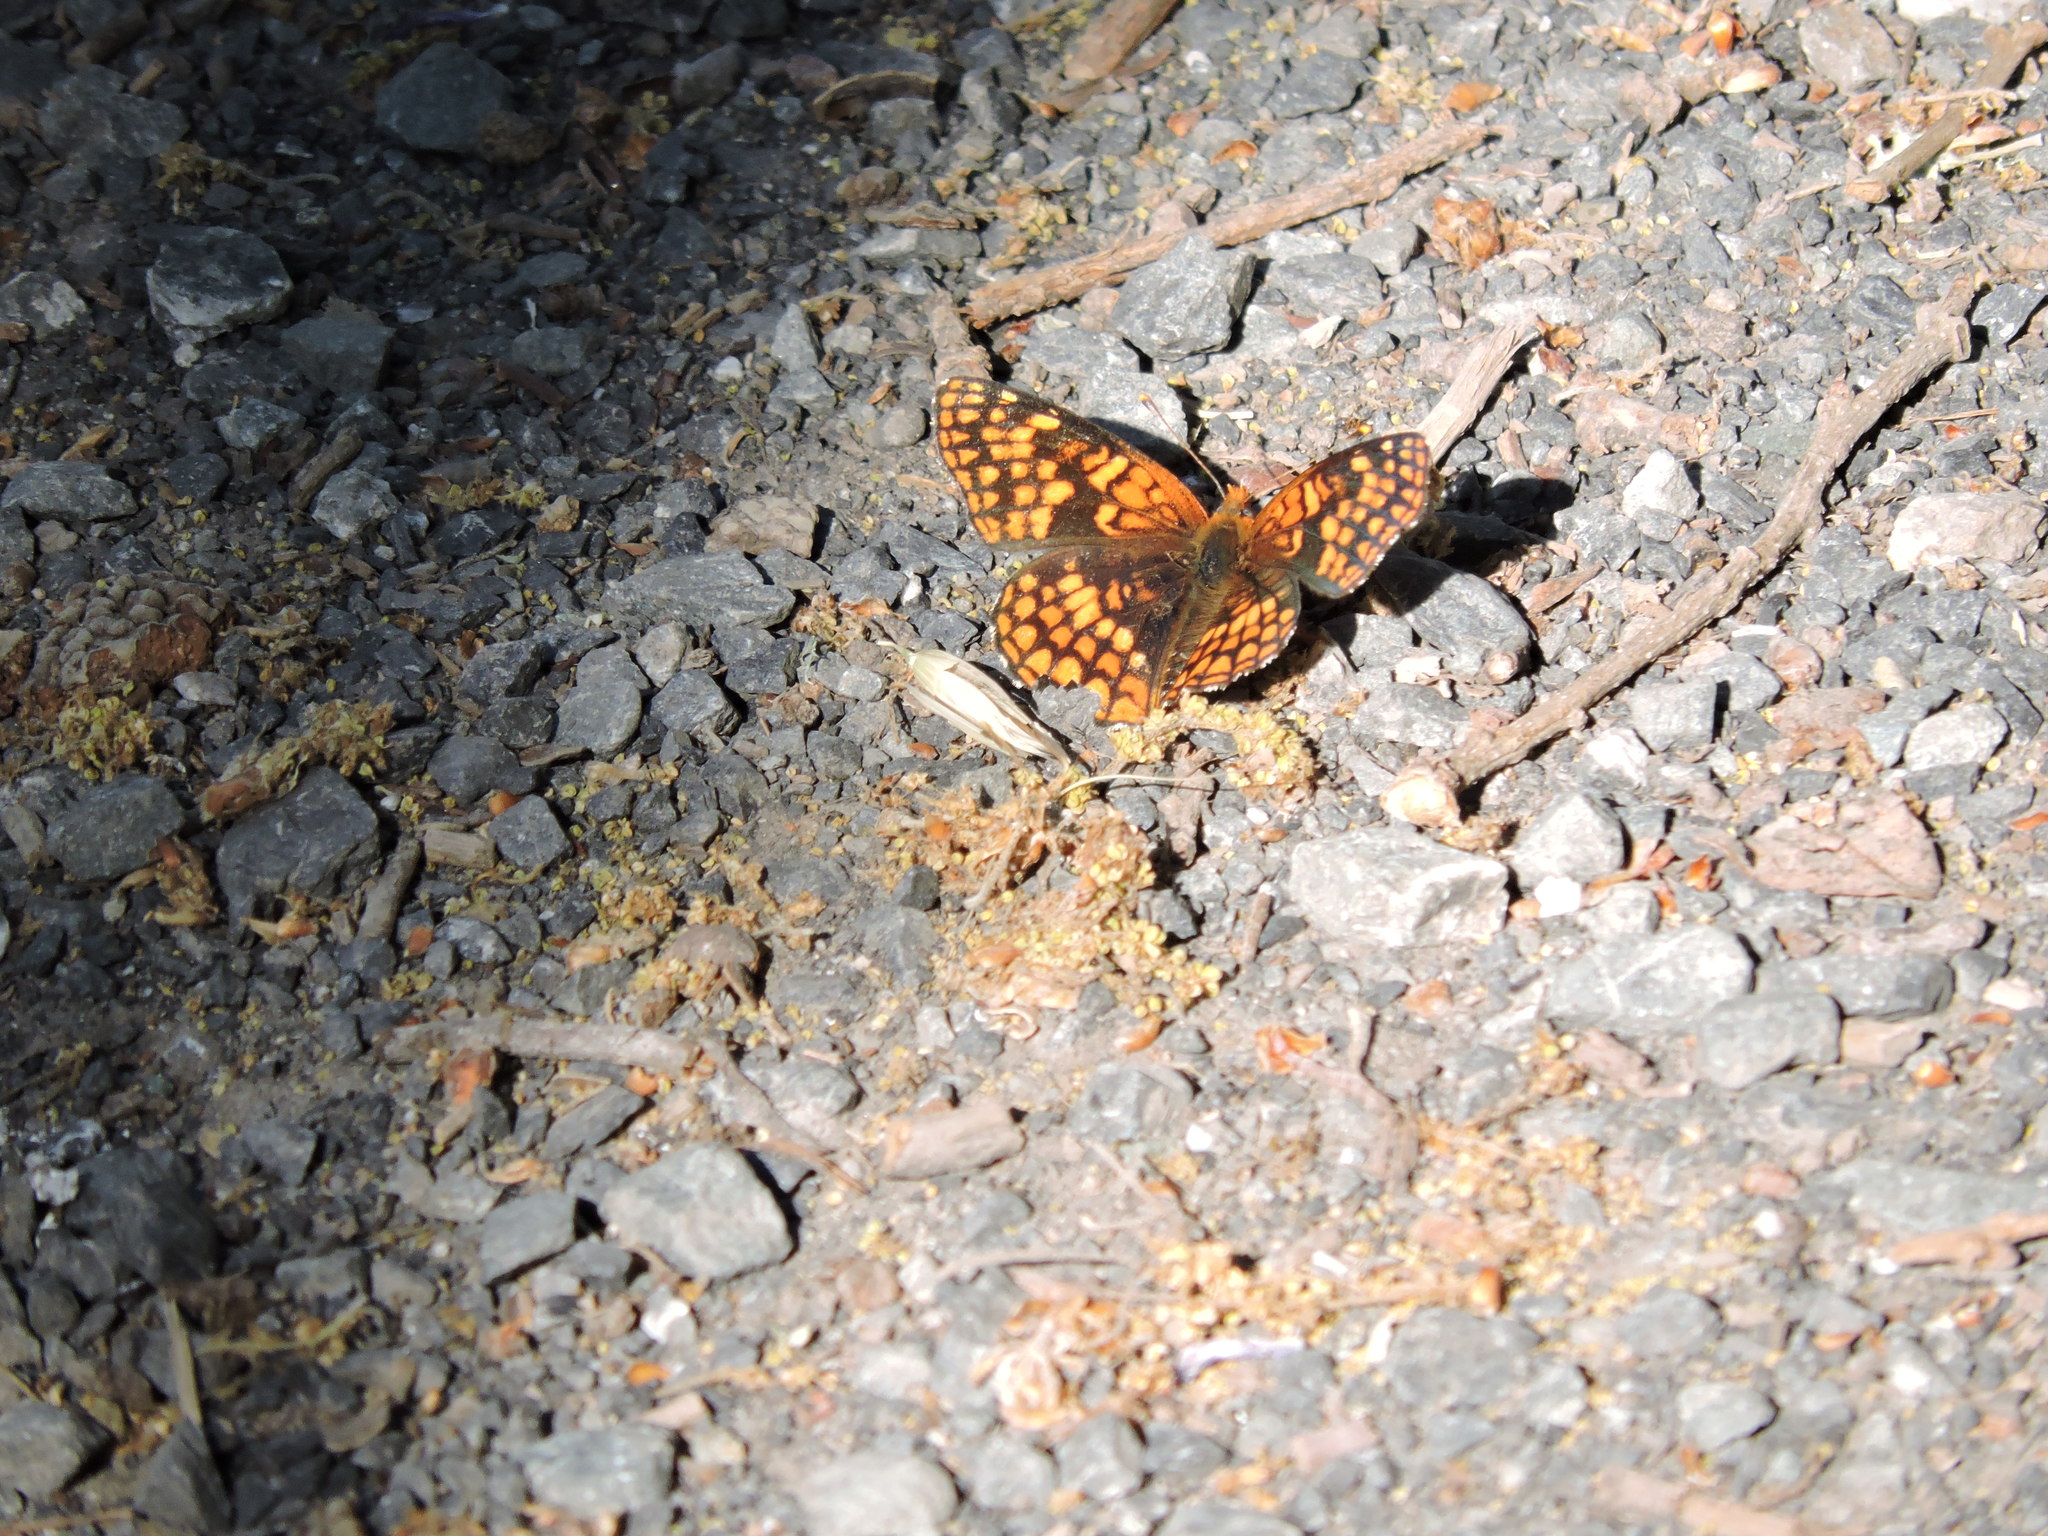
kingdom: Animalia
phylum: Arthropoda
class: Insecta
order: Lepidoptera
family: Nymphalidae
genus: Chlosyne
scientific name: Chlosyne palla
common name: Northern checkerspot
